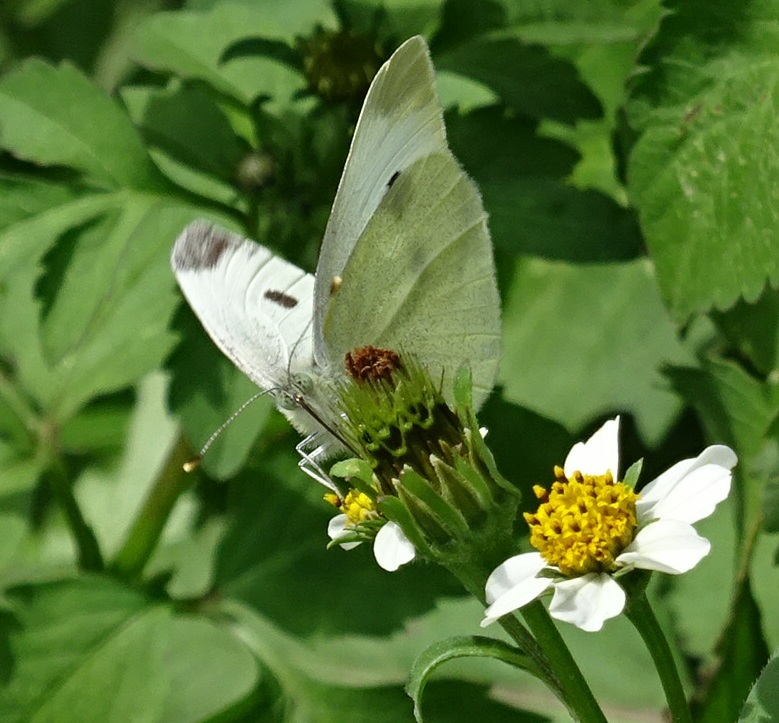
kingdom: Animalia
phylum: Arthropoda
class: Insecta
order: Lepidoptera
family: Pieridae
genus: Pieris
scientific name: Pieris rapae
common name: Small white
